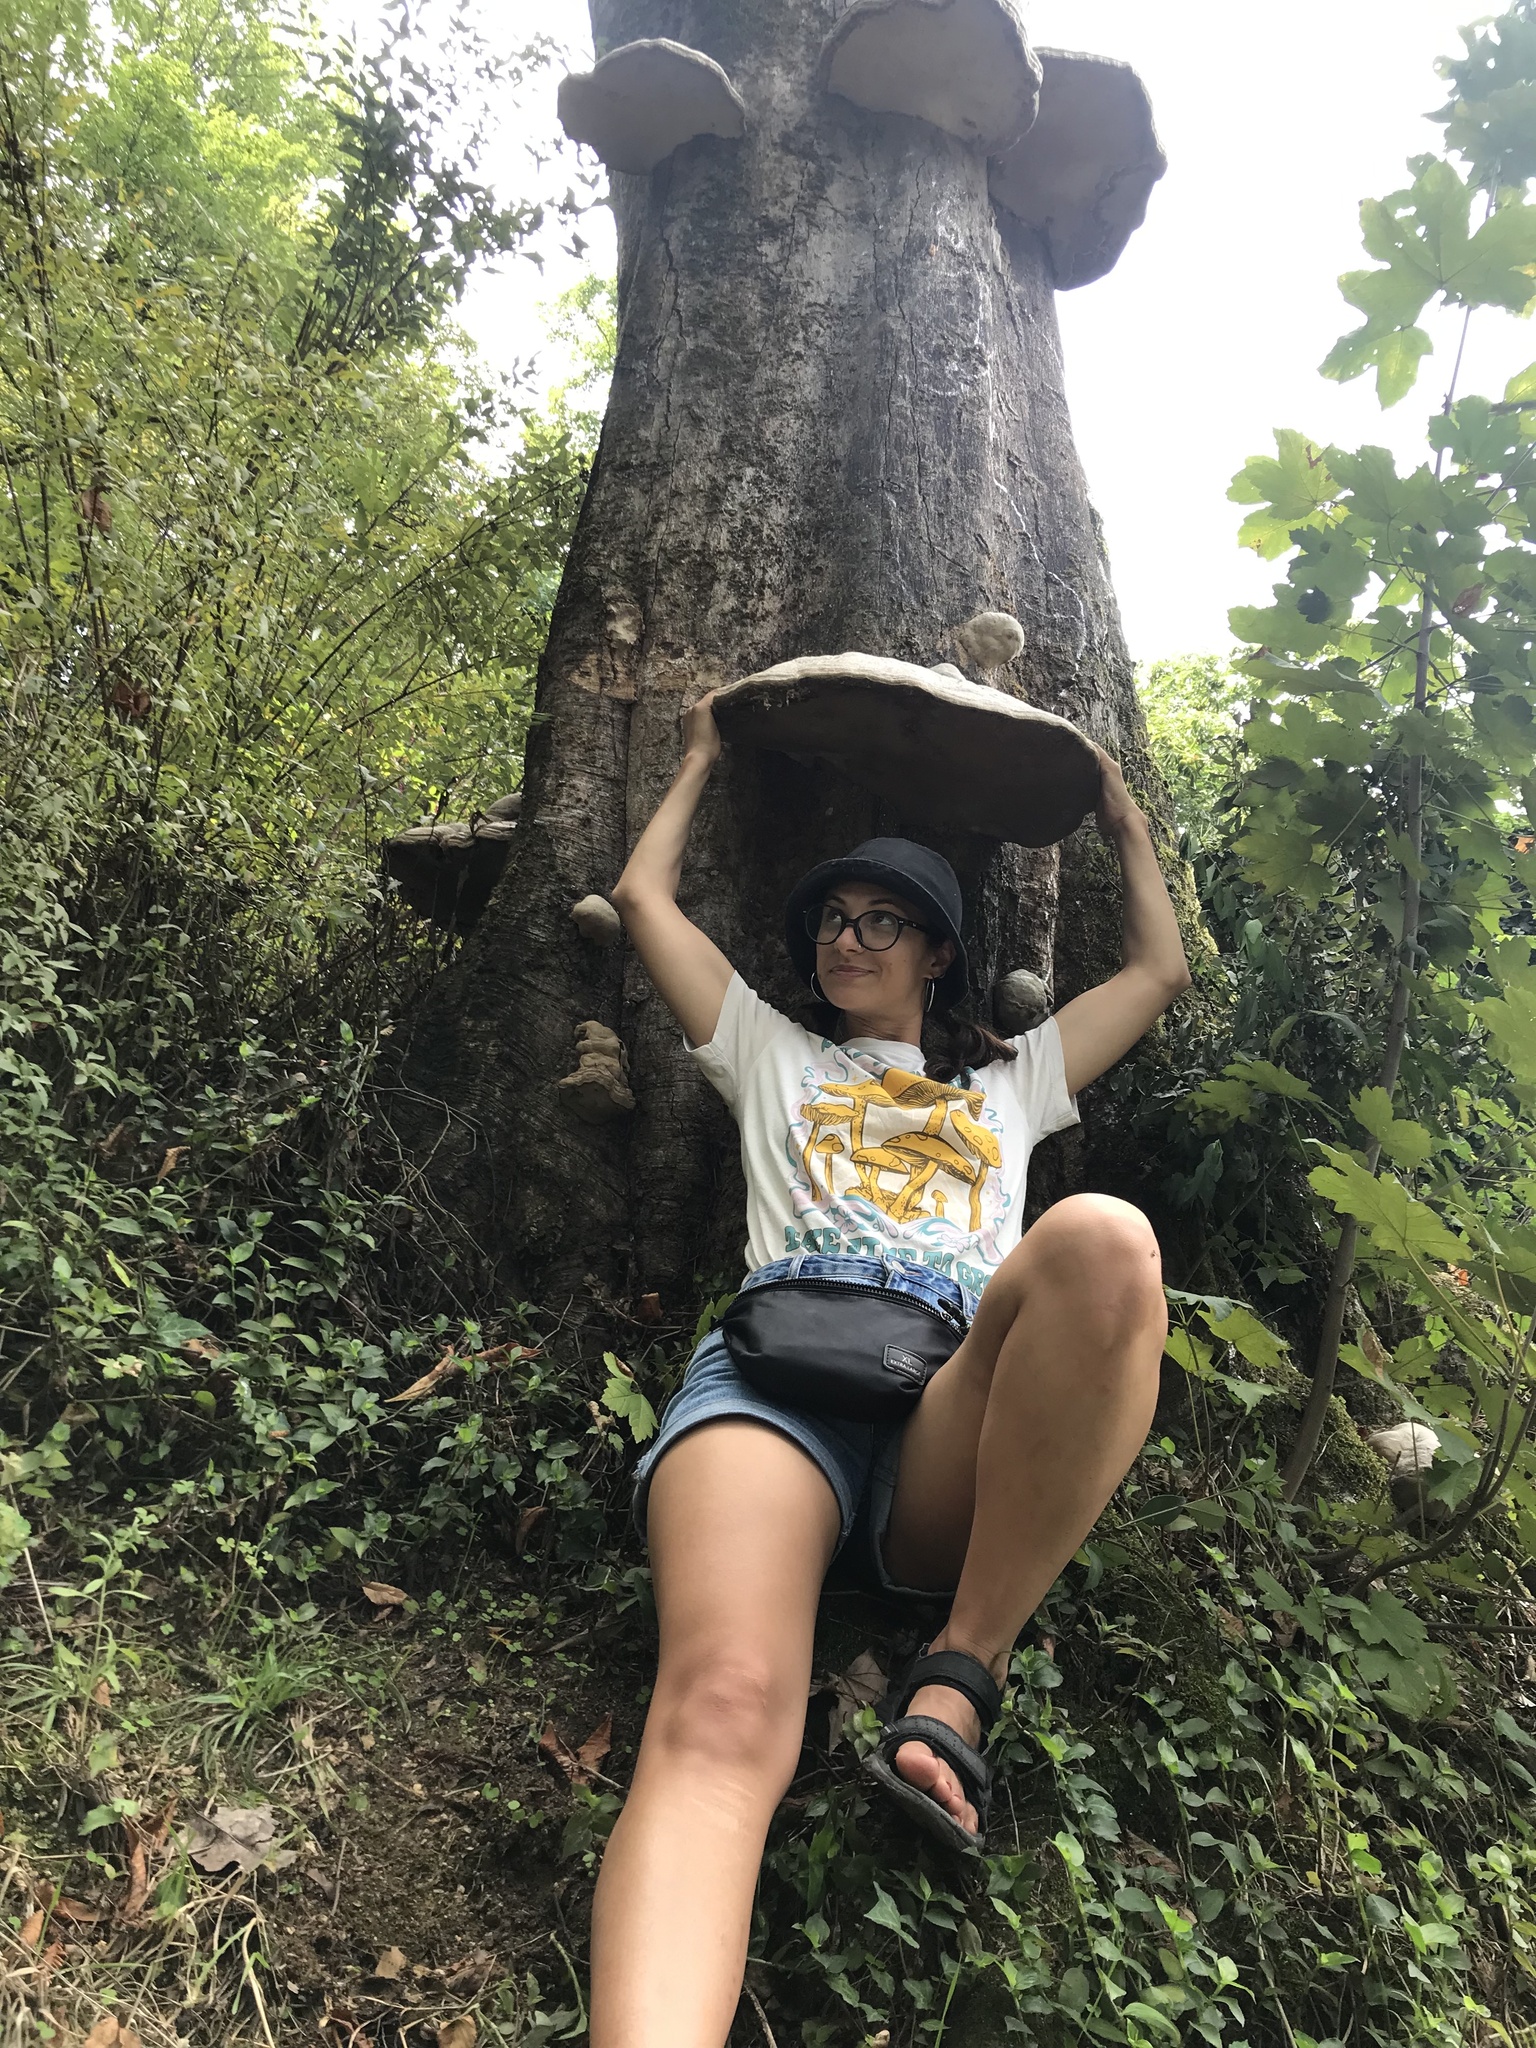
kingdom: Fungi
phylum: Basidiomycota
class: Agaricomycetes
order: Polyporales
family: Polyporaceae
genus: Fomes
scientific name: Fomes fomentarius
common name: Hoof fungus
